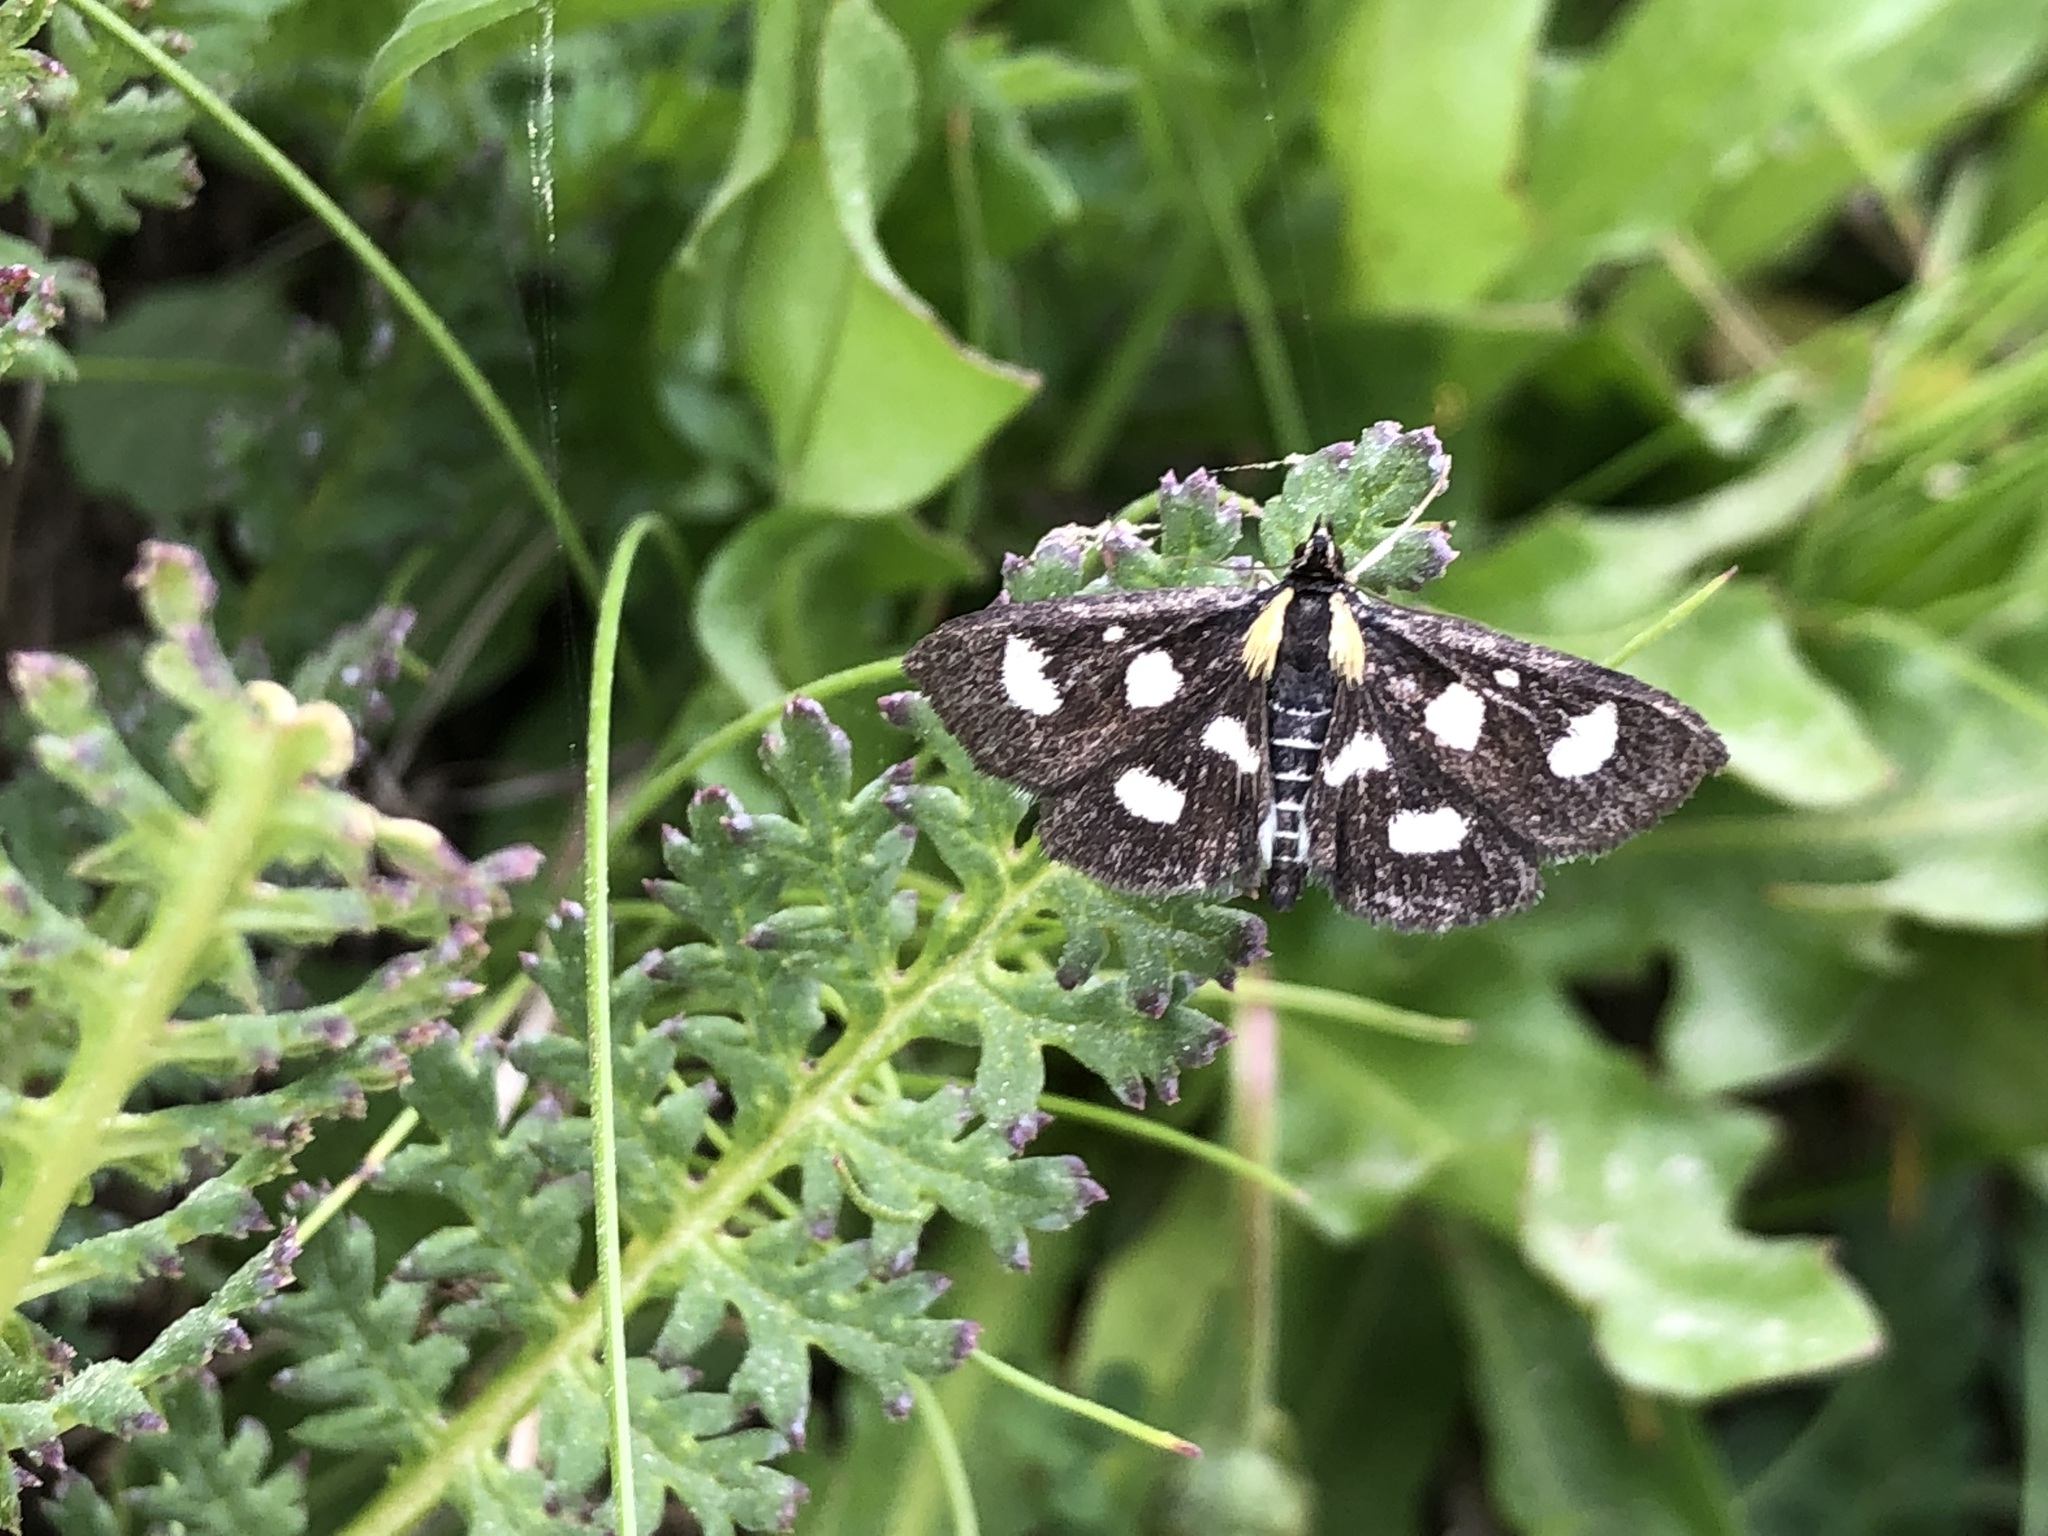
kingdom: Animalia
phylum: Arthropoda
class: Insecta
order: Lepidoptera
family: Crambidae
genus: Anania
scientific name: Anania funebris
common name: White-spotted sable moth
